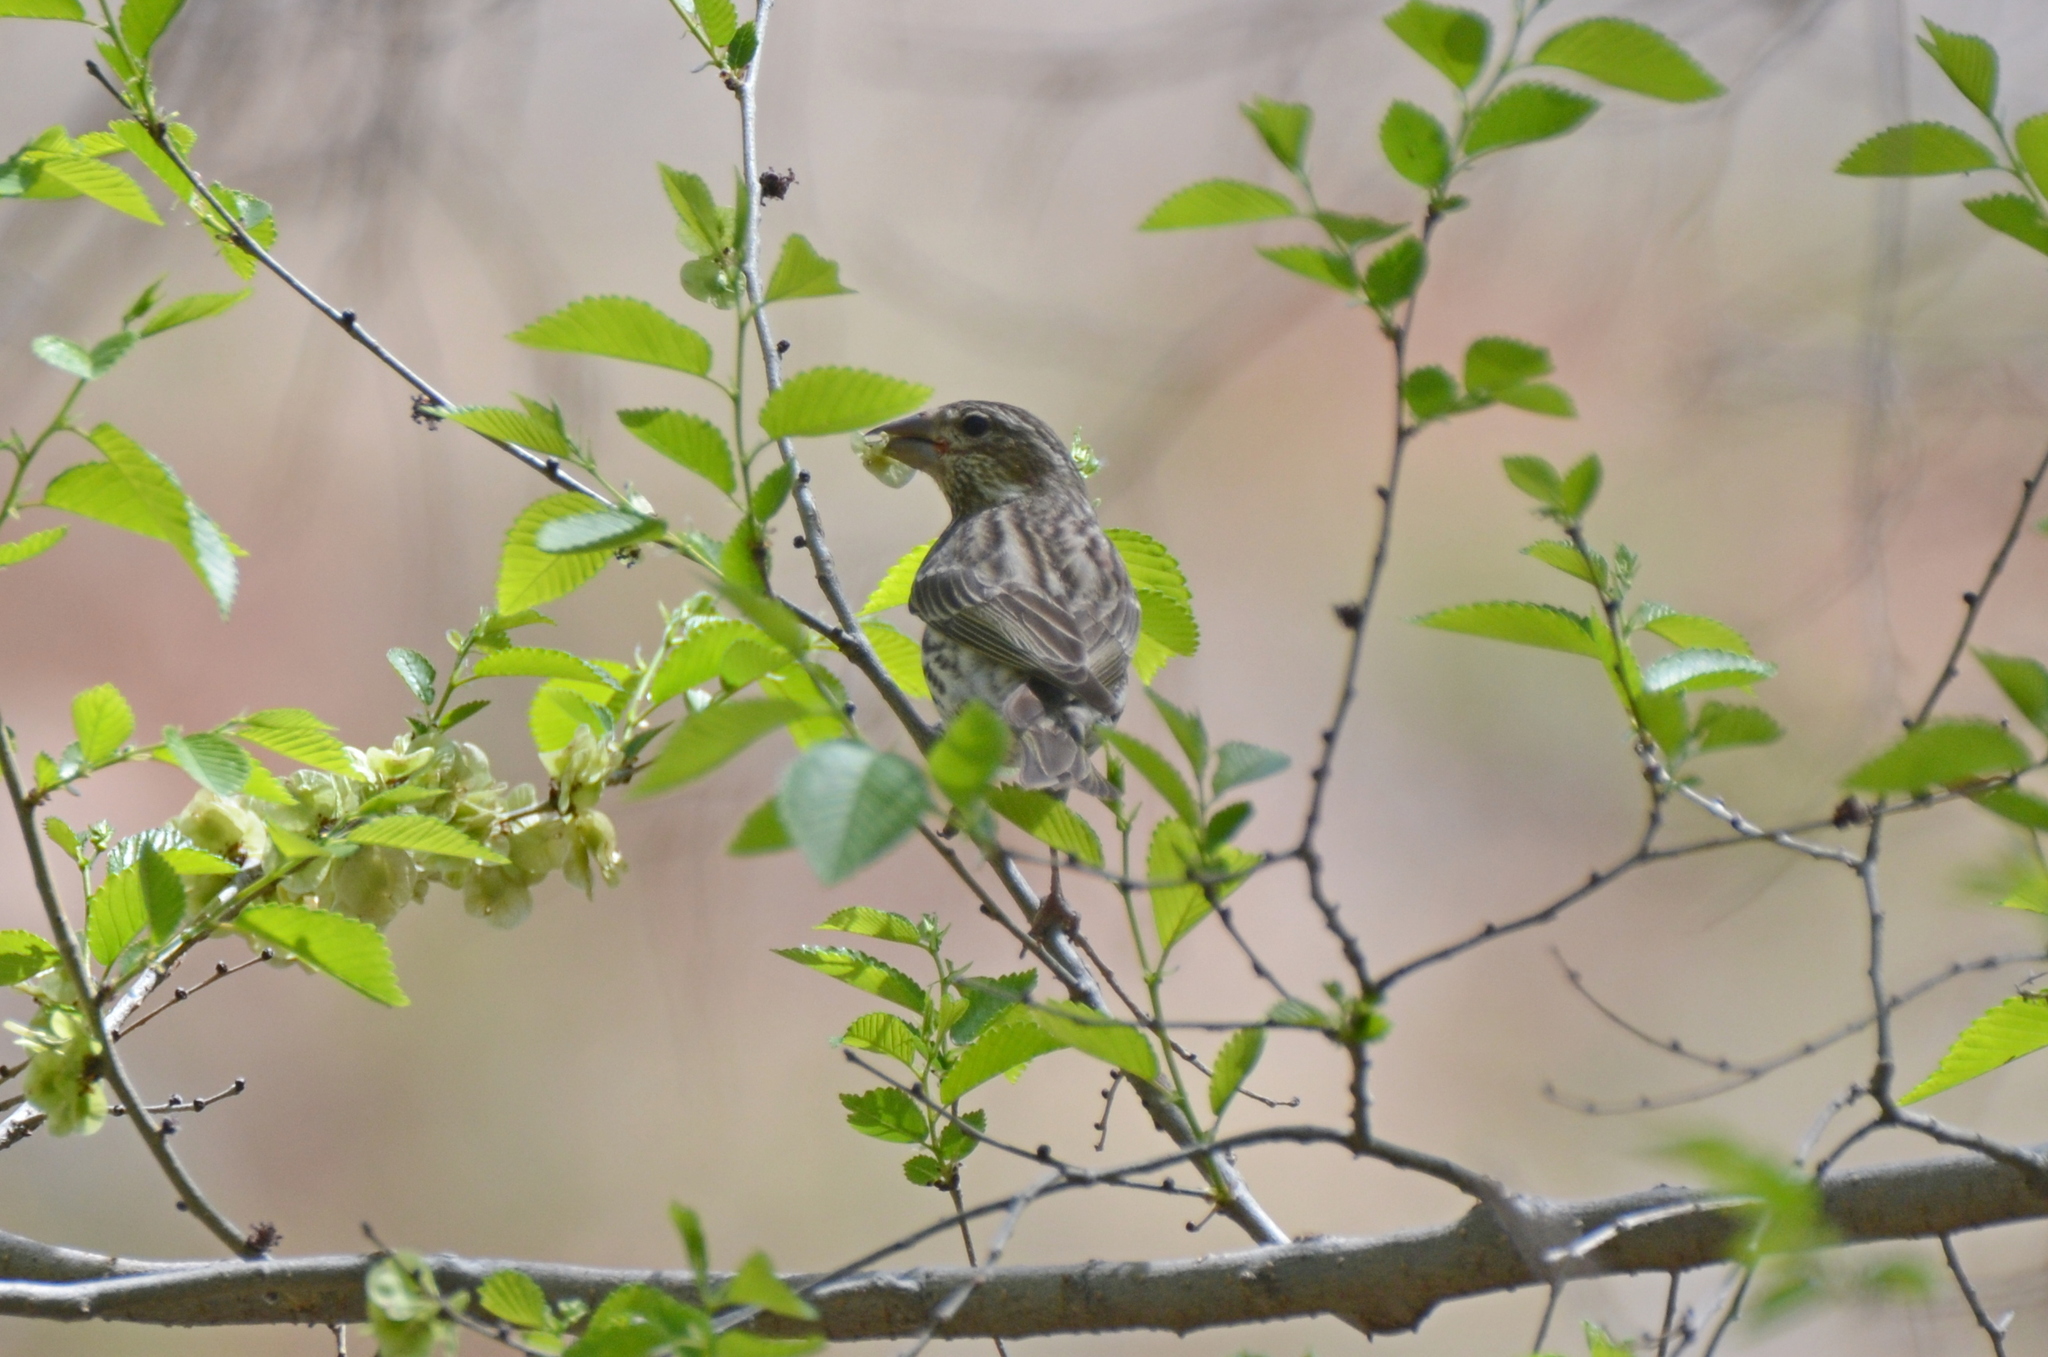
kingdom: Animalia
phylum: Chordata
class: Aves
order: Passeriformes
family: Fringillidae
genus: Haemorhous
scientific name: Haemorhous cassinii
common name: Cassin's finch
